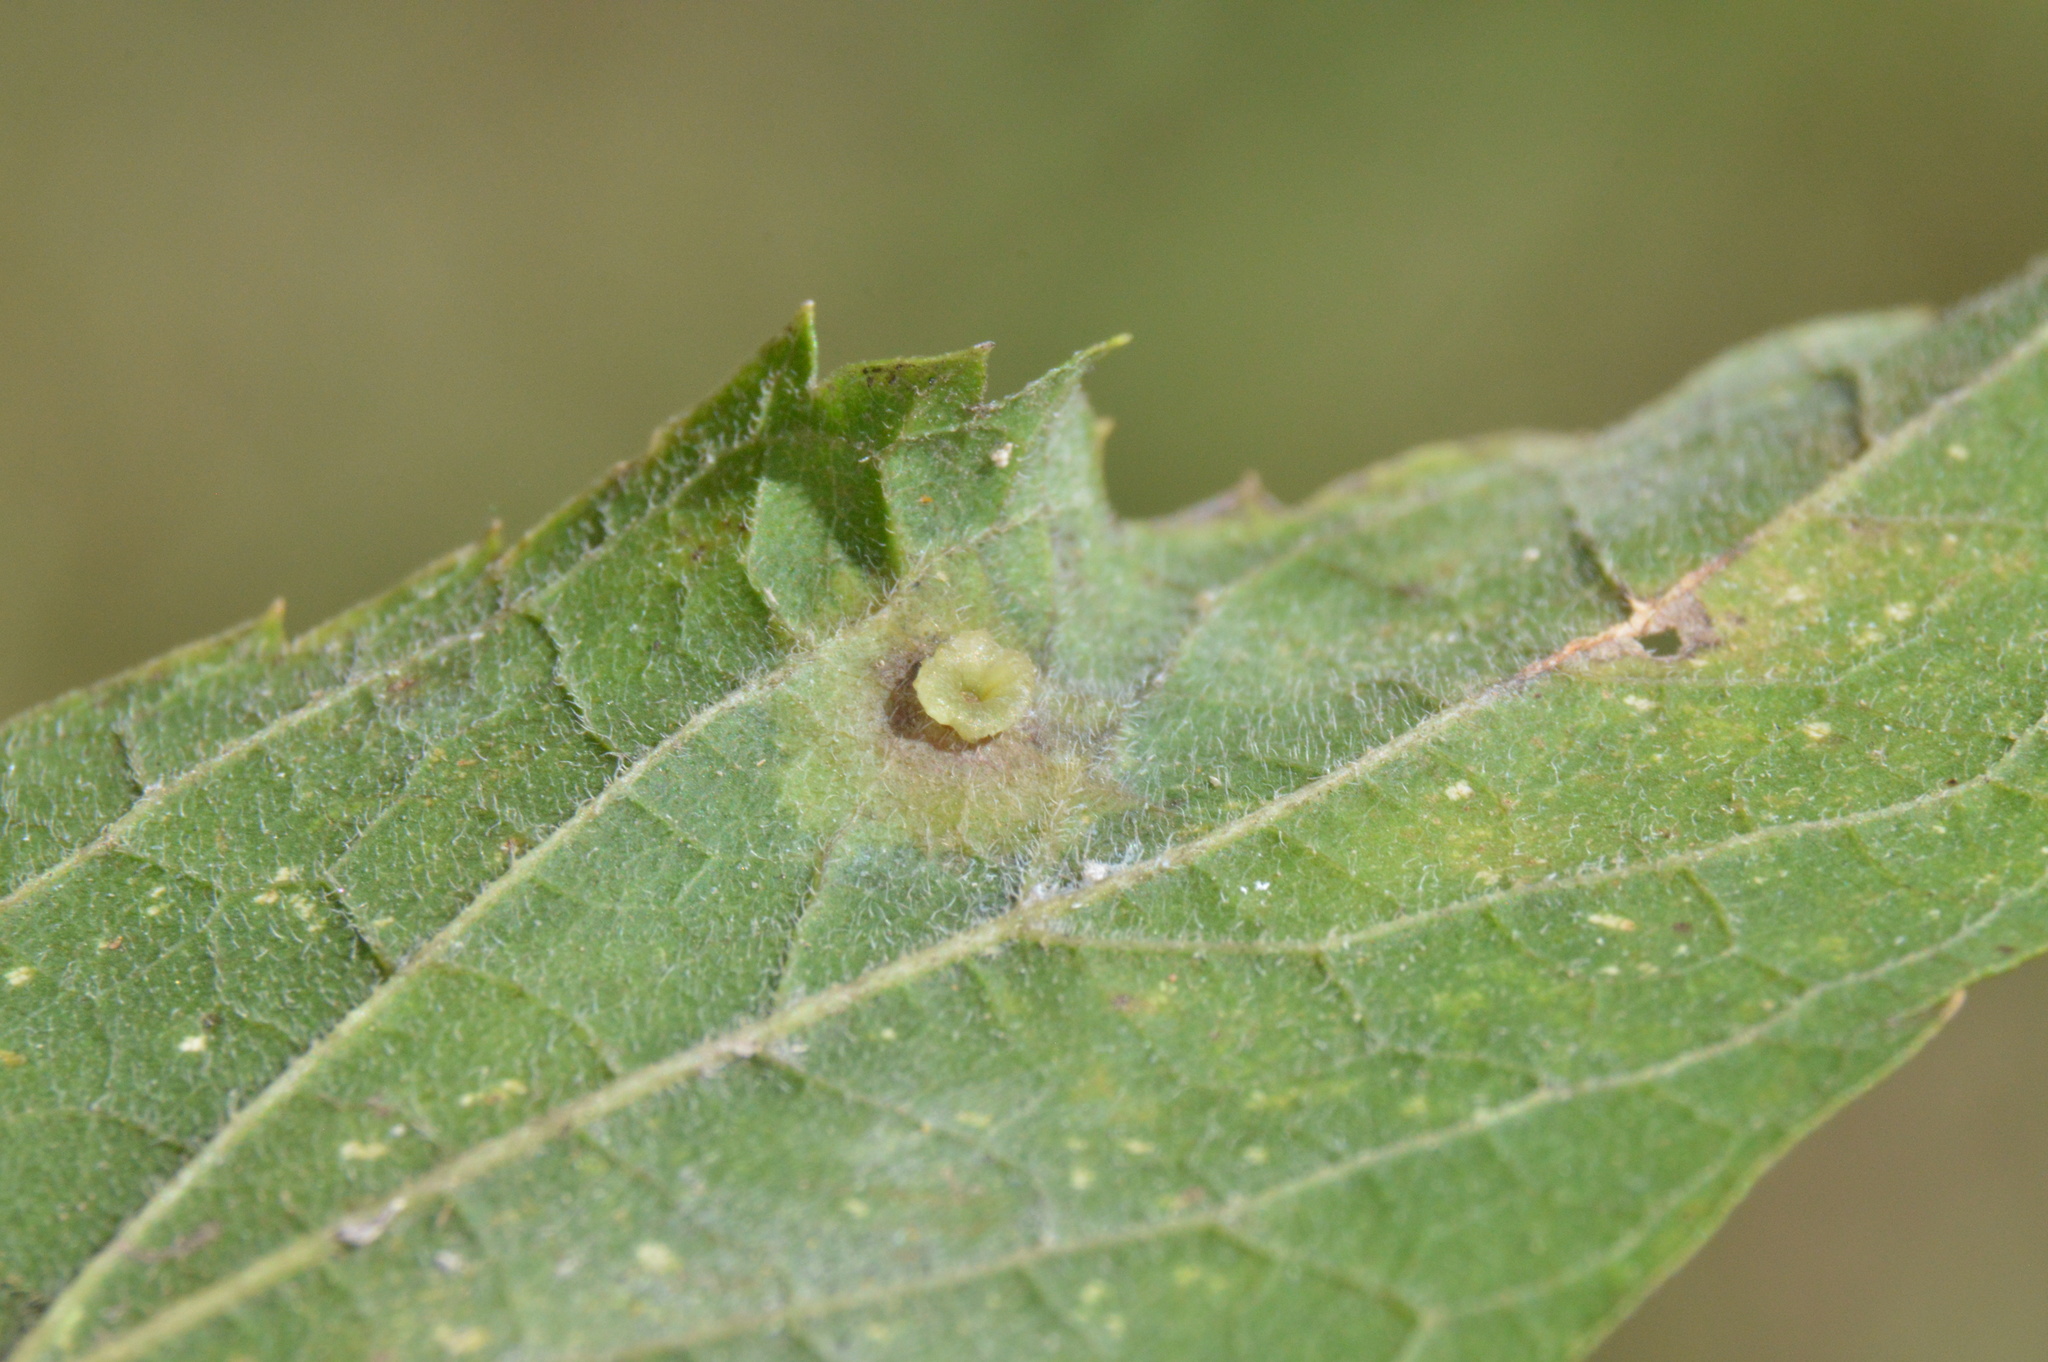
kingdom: Animalia
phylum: Arthropoda
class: Insecta
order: Hemiptera
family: Aphalaridae
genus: Pachypsylla
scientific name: Pachypsylla celtidisasterisca
